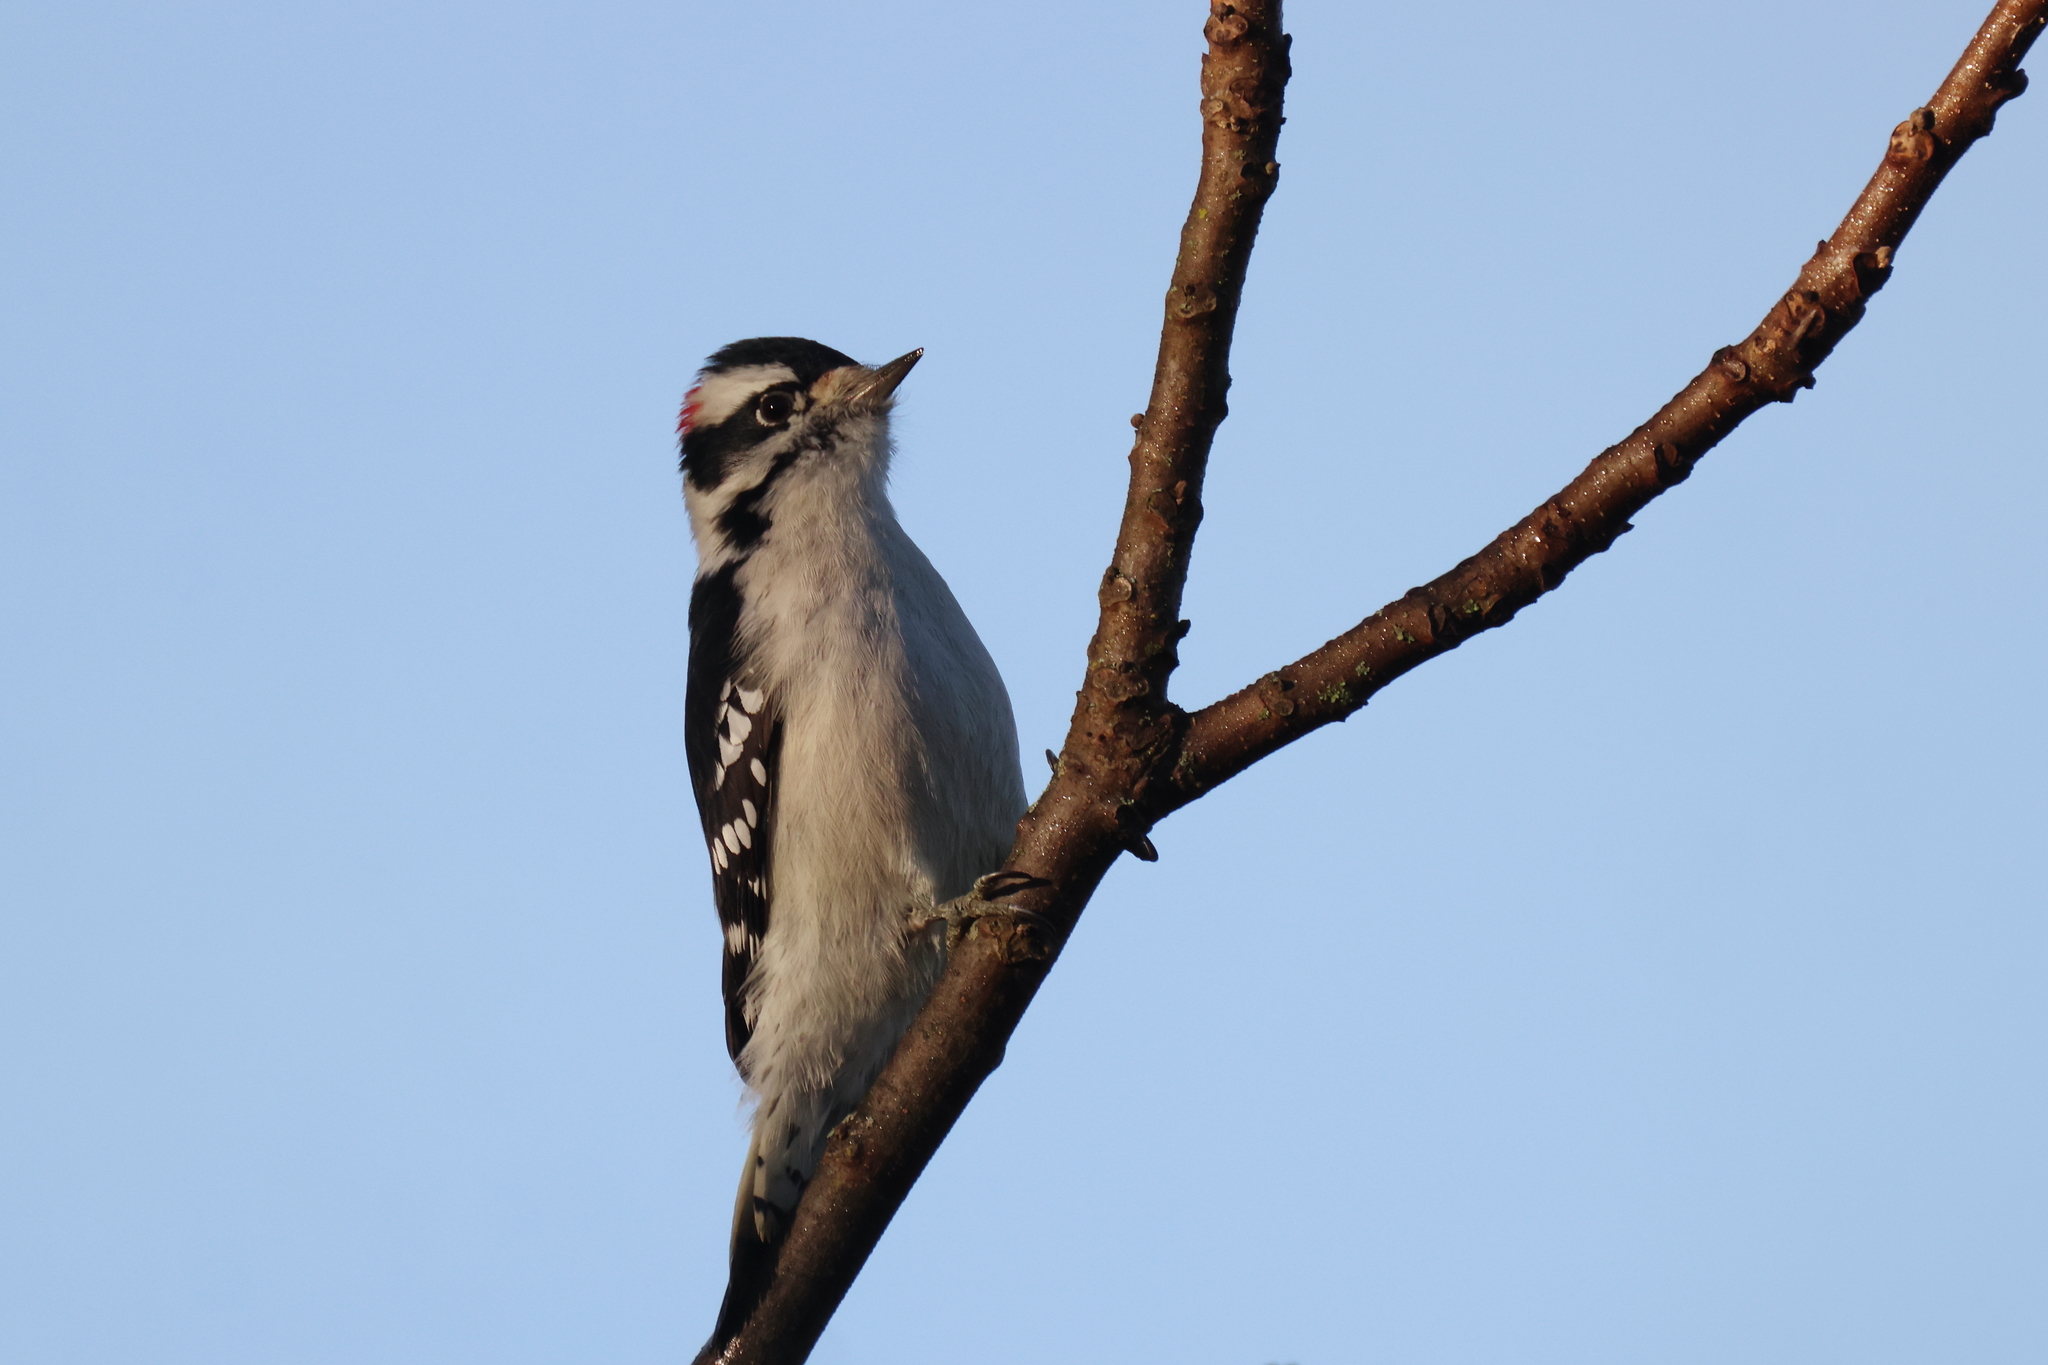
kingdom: Animalia
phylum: Chordata
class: Aves
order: Piciformes
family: Picidae
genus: Dryobates
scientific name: Dryobates pubescens
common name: Downy woodpecker
